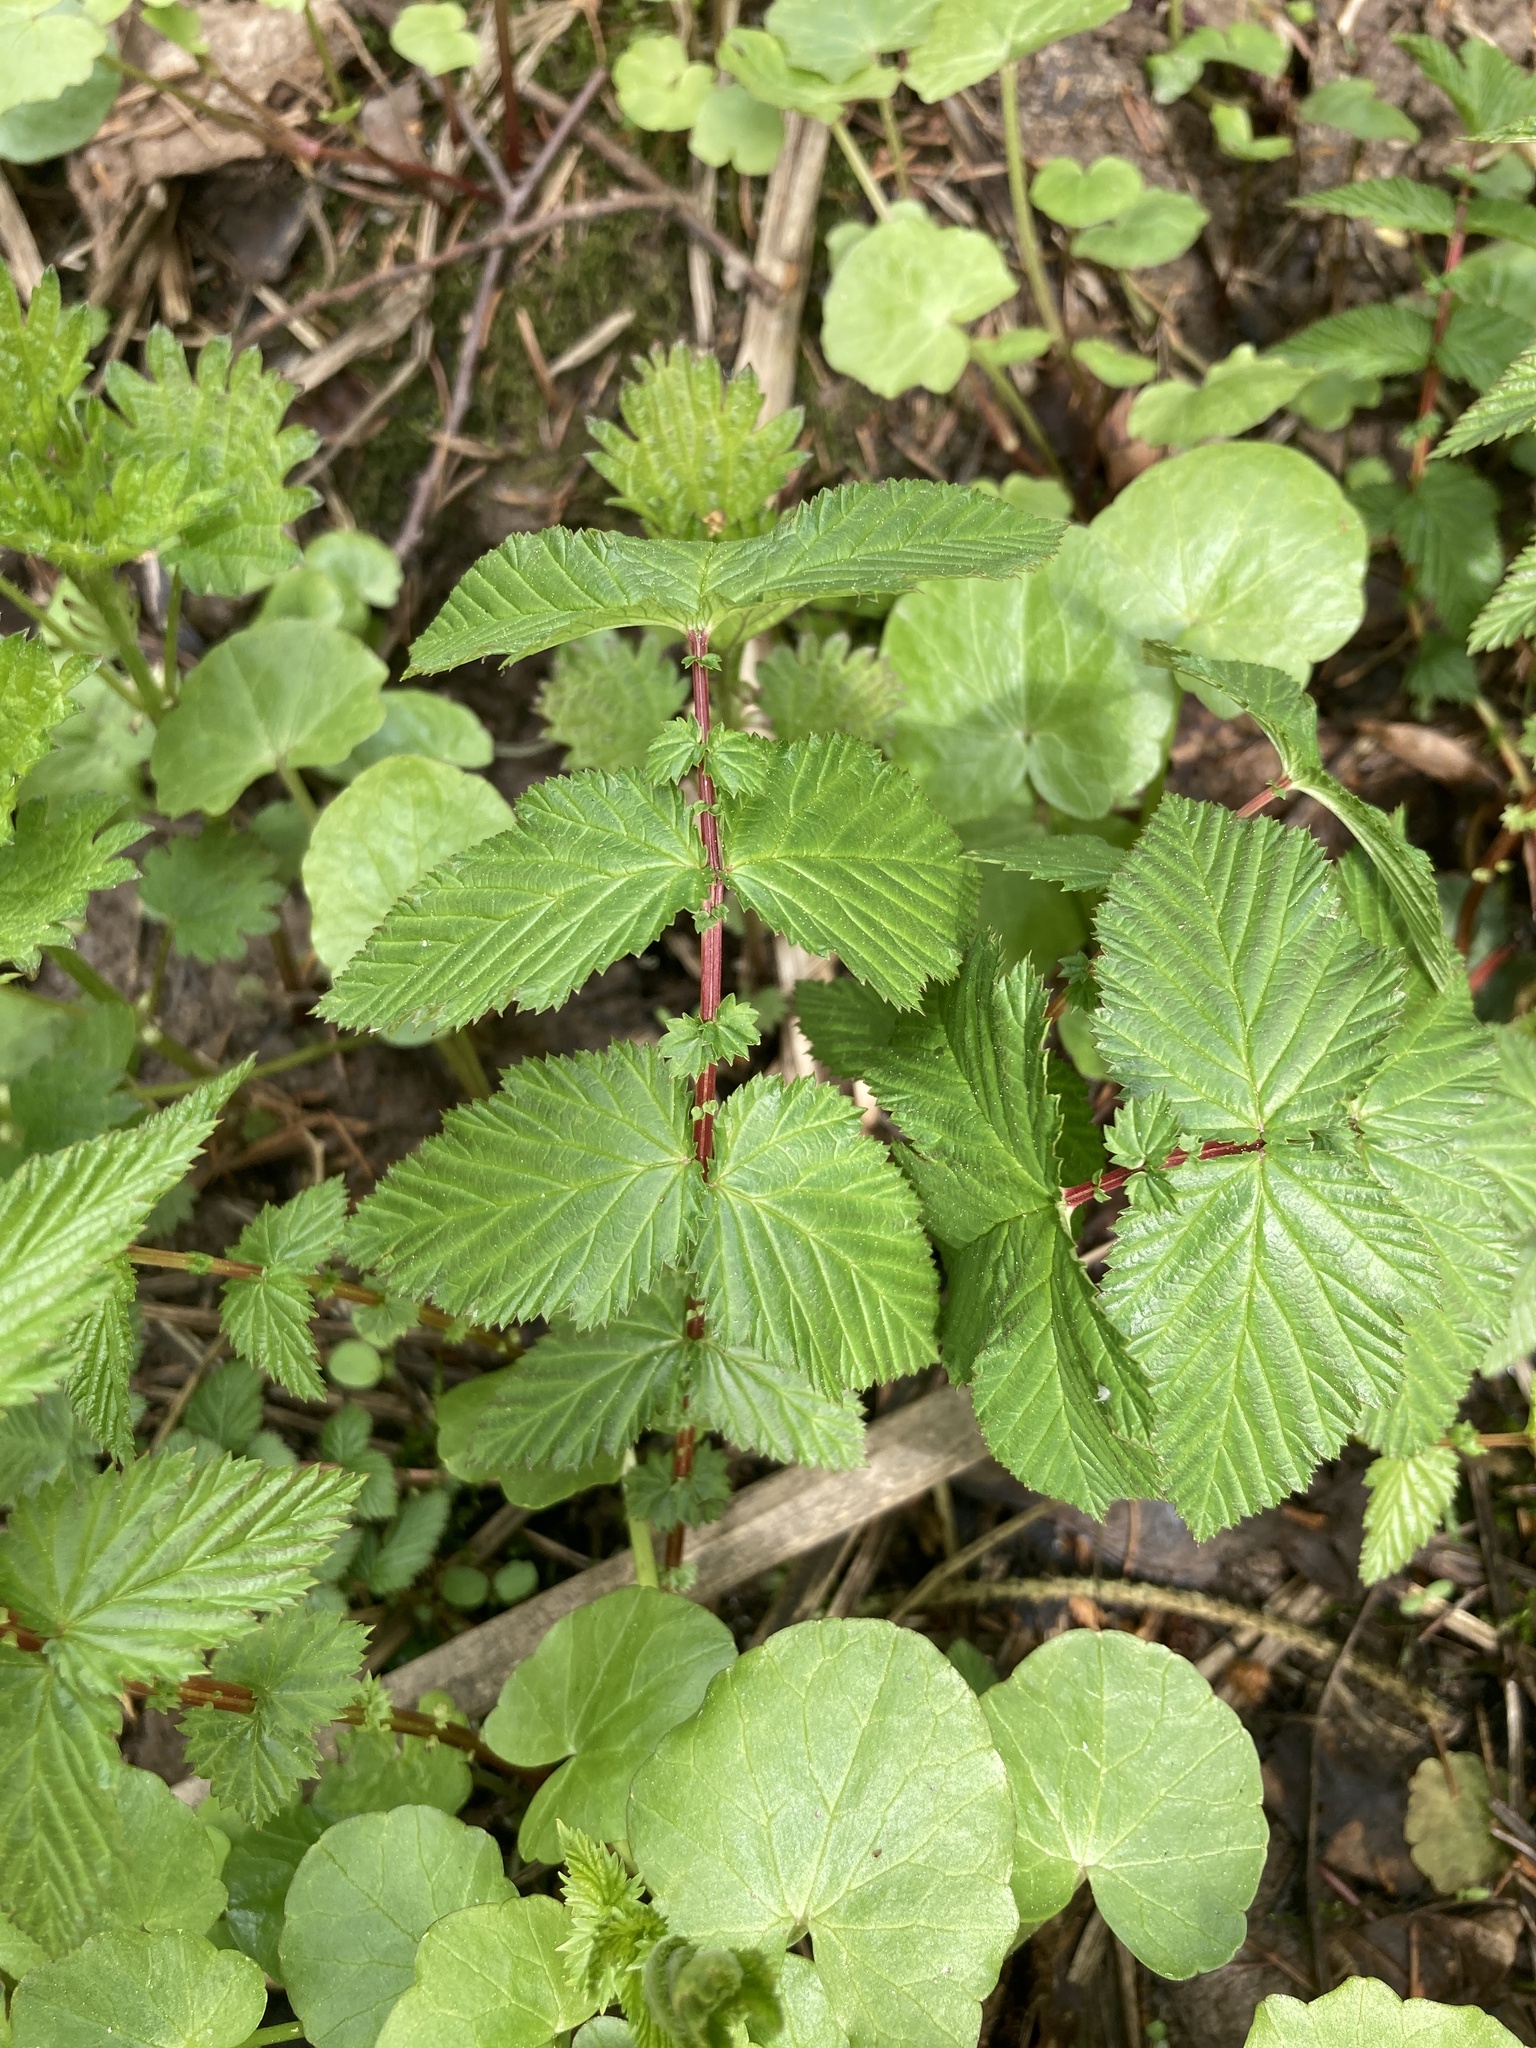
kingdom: Plantae
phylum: Tracheophyta
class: Magnoliopsida
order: Rosales
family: Rosaceae
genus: Filipendula
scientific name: Filipendula ulmaria
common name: Meadowsweet
